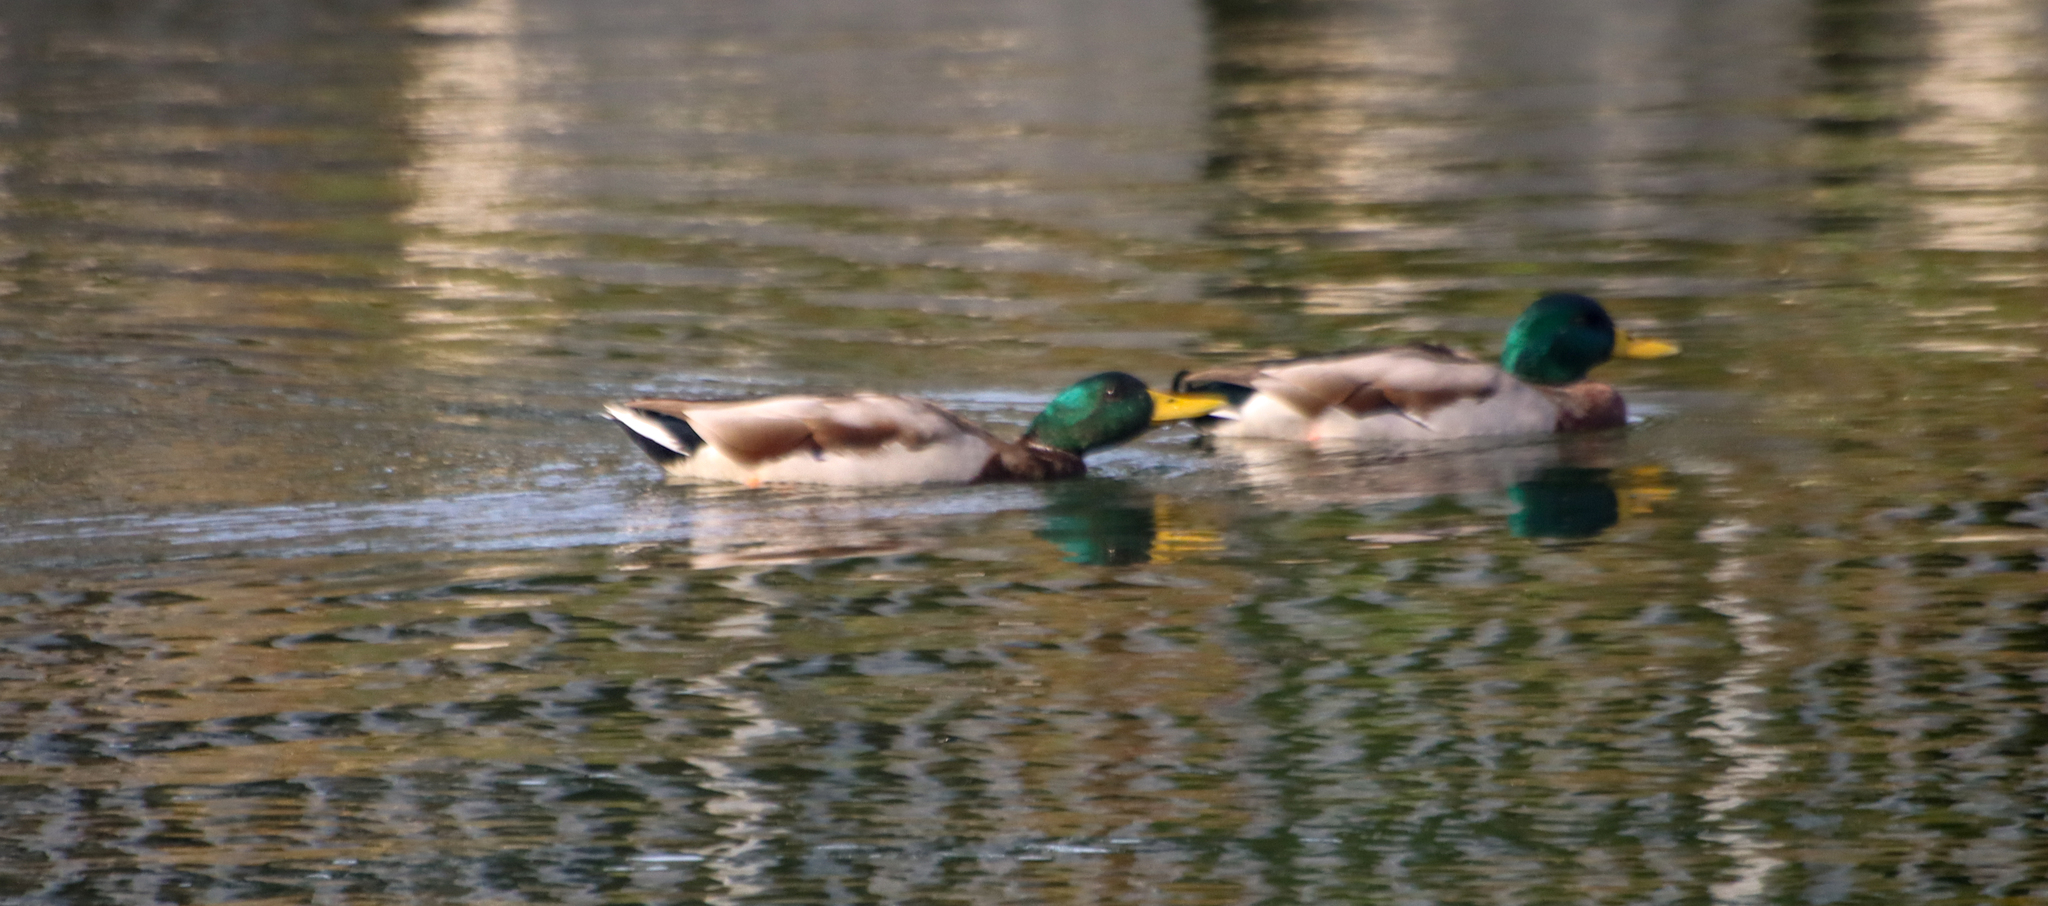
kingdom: Animalia
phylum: Chordata
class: Aves
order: Anseriformes
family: Anatidae
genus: Anas
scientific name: Anas platyrhynchos
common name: Mallard
